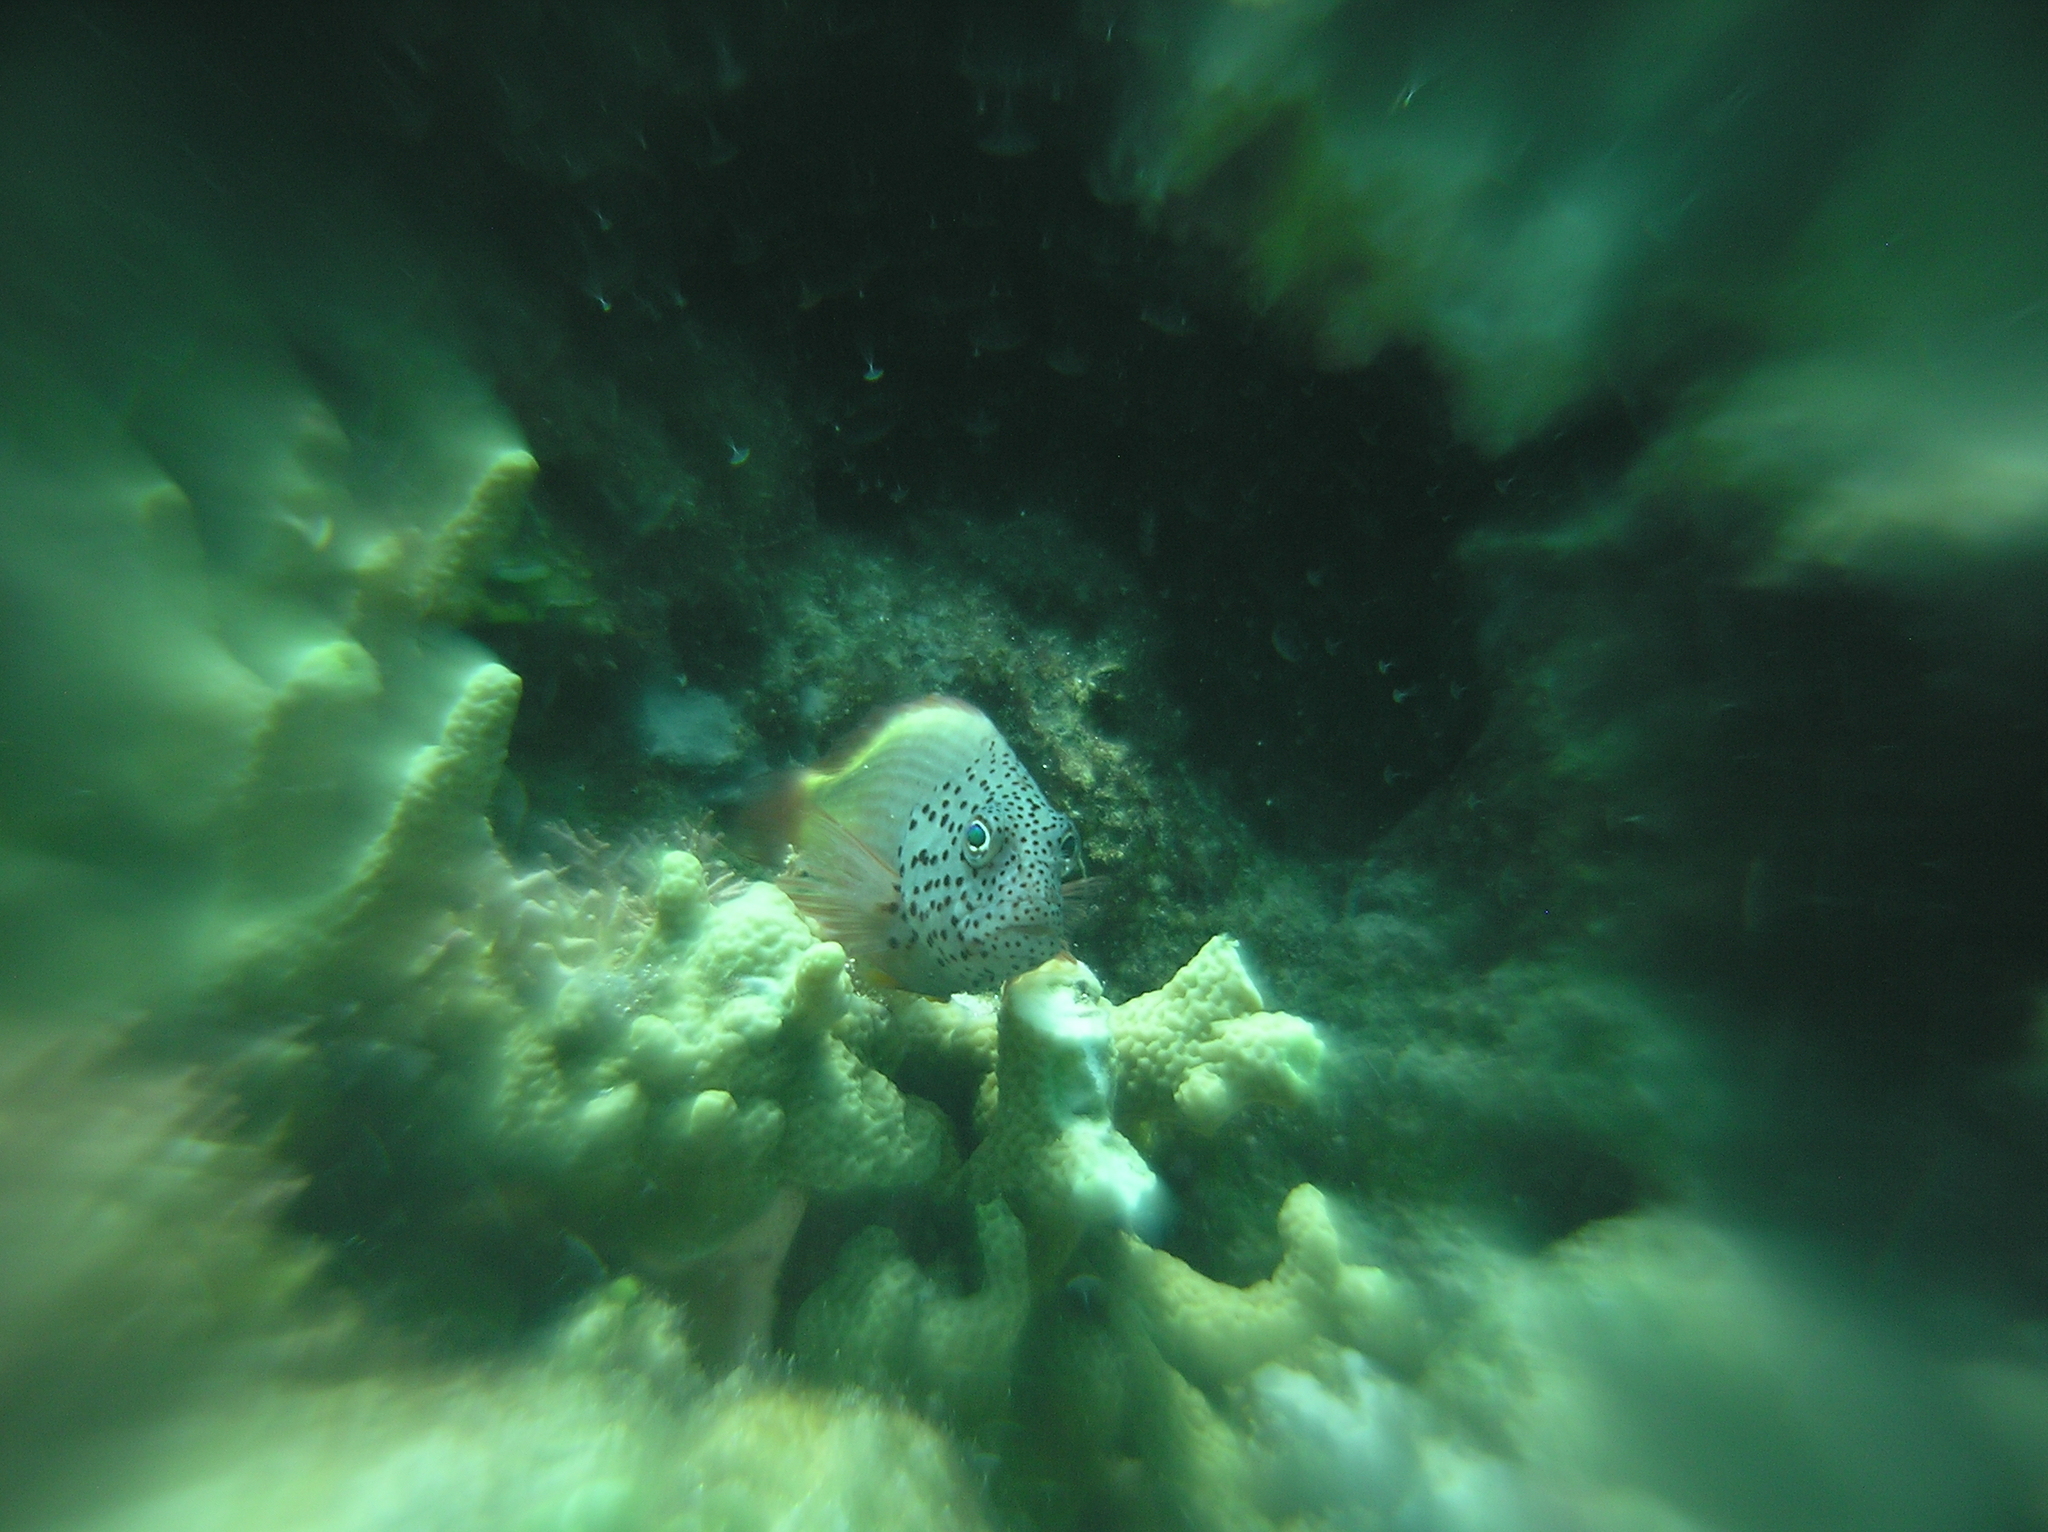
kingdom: Animalia
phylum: Chordata
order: Perciformes
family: Cirrhitidae
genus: Paracirrhites
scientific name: Paracirrhites forsteri
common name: Freckled hawkfish
